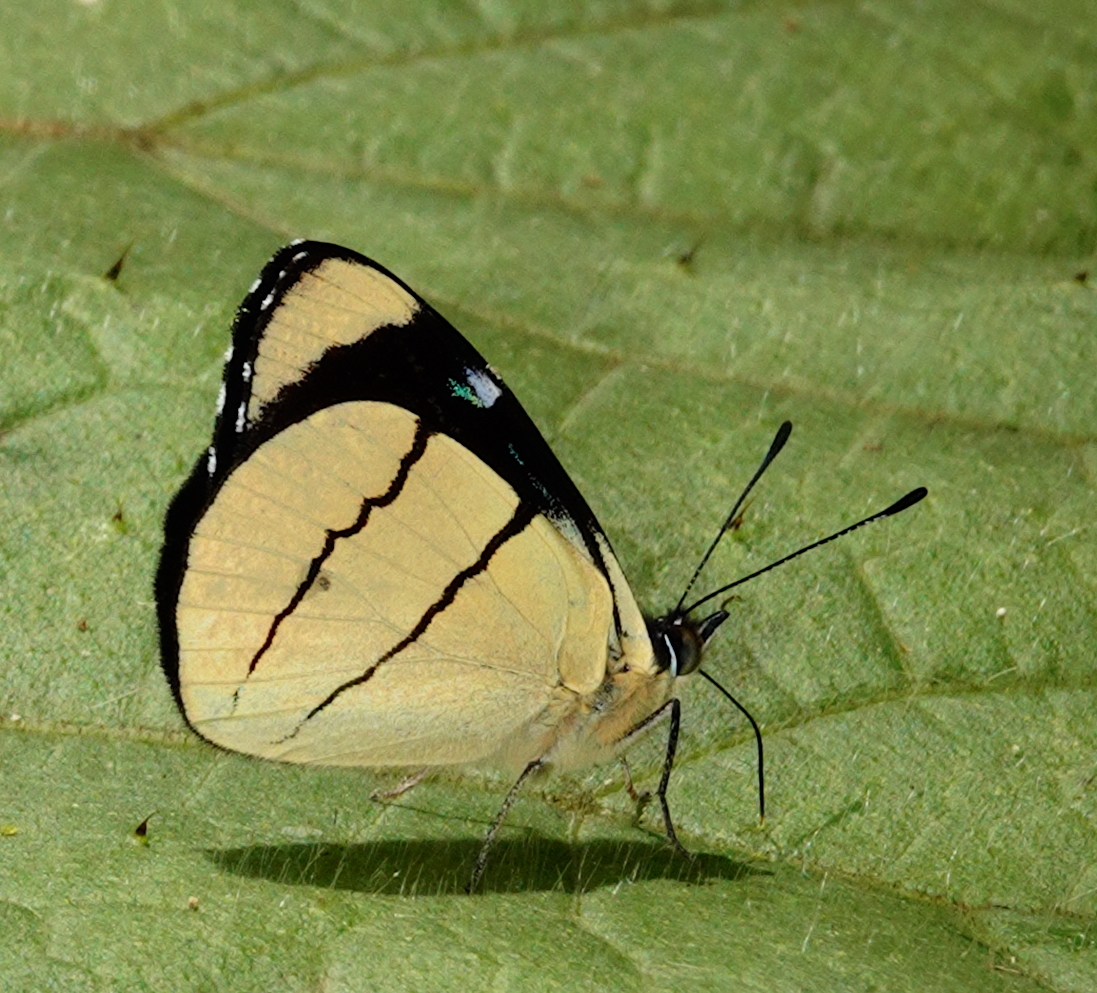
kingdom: Animalia
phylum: Arthropoda
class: Insecta
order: Lepidoptera
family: Nymphalidae
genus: Perisama
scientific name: Perisama oppelii
